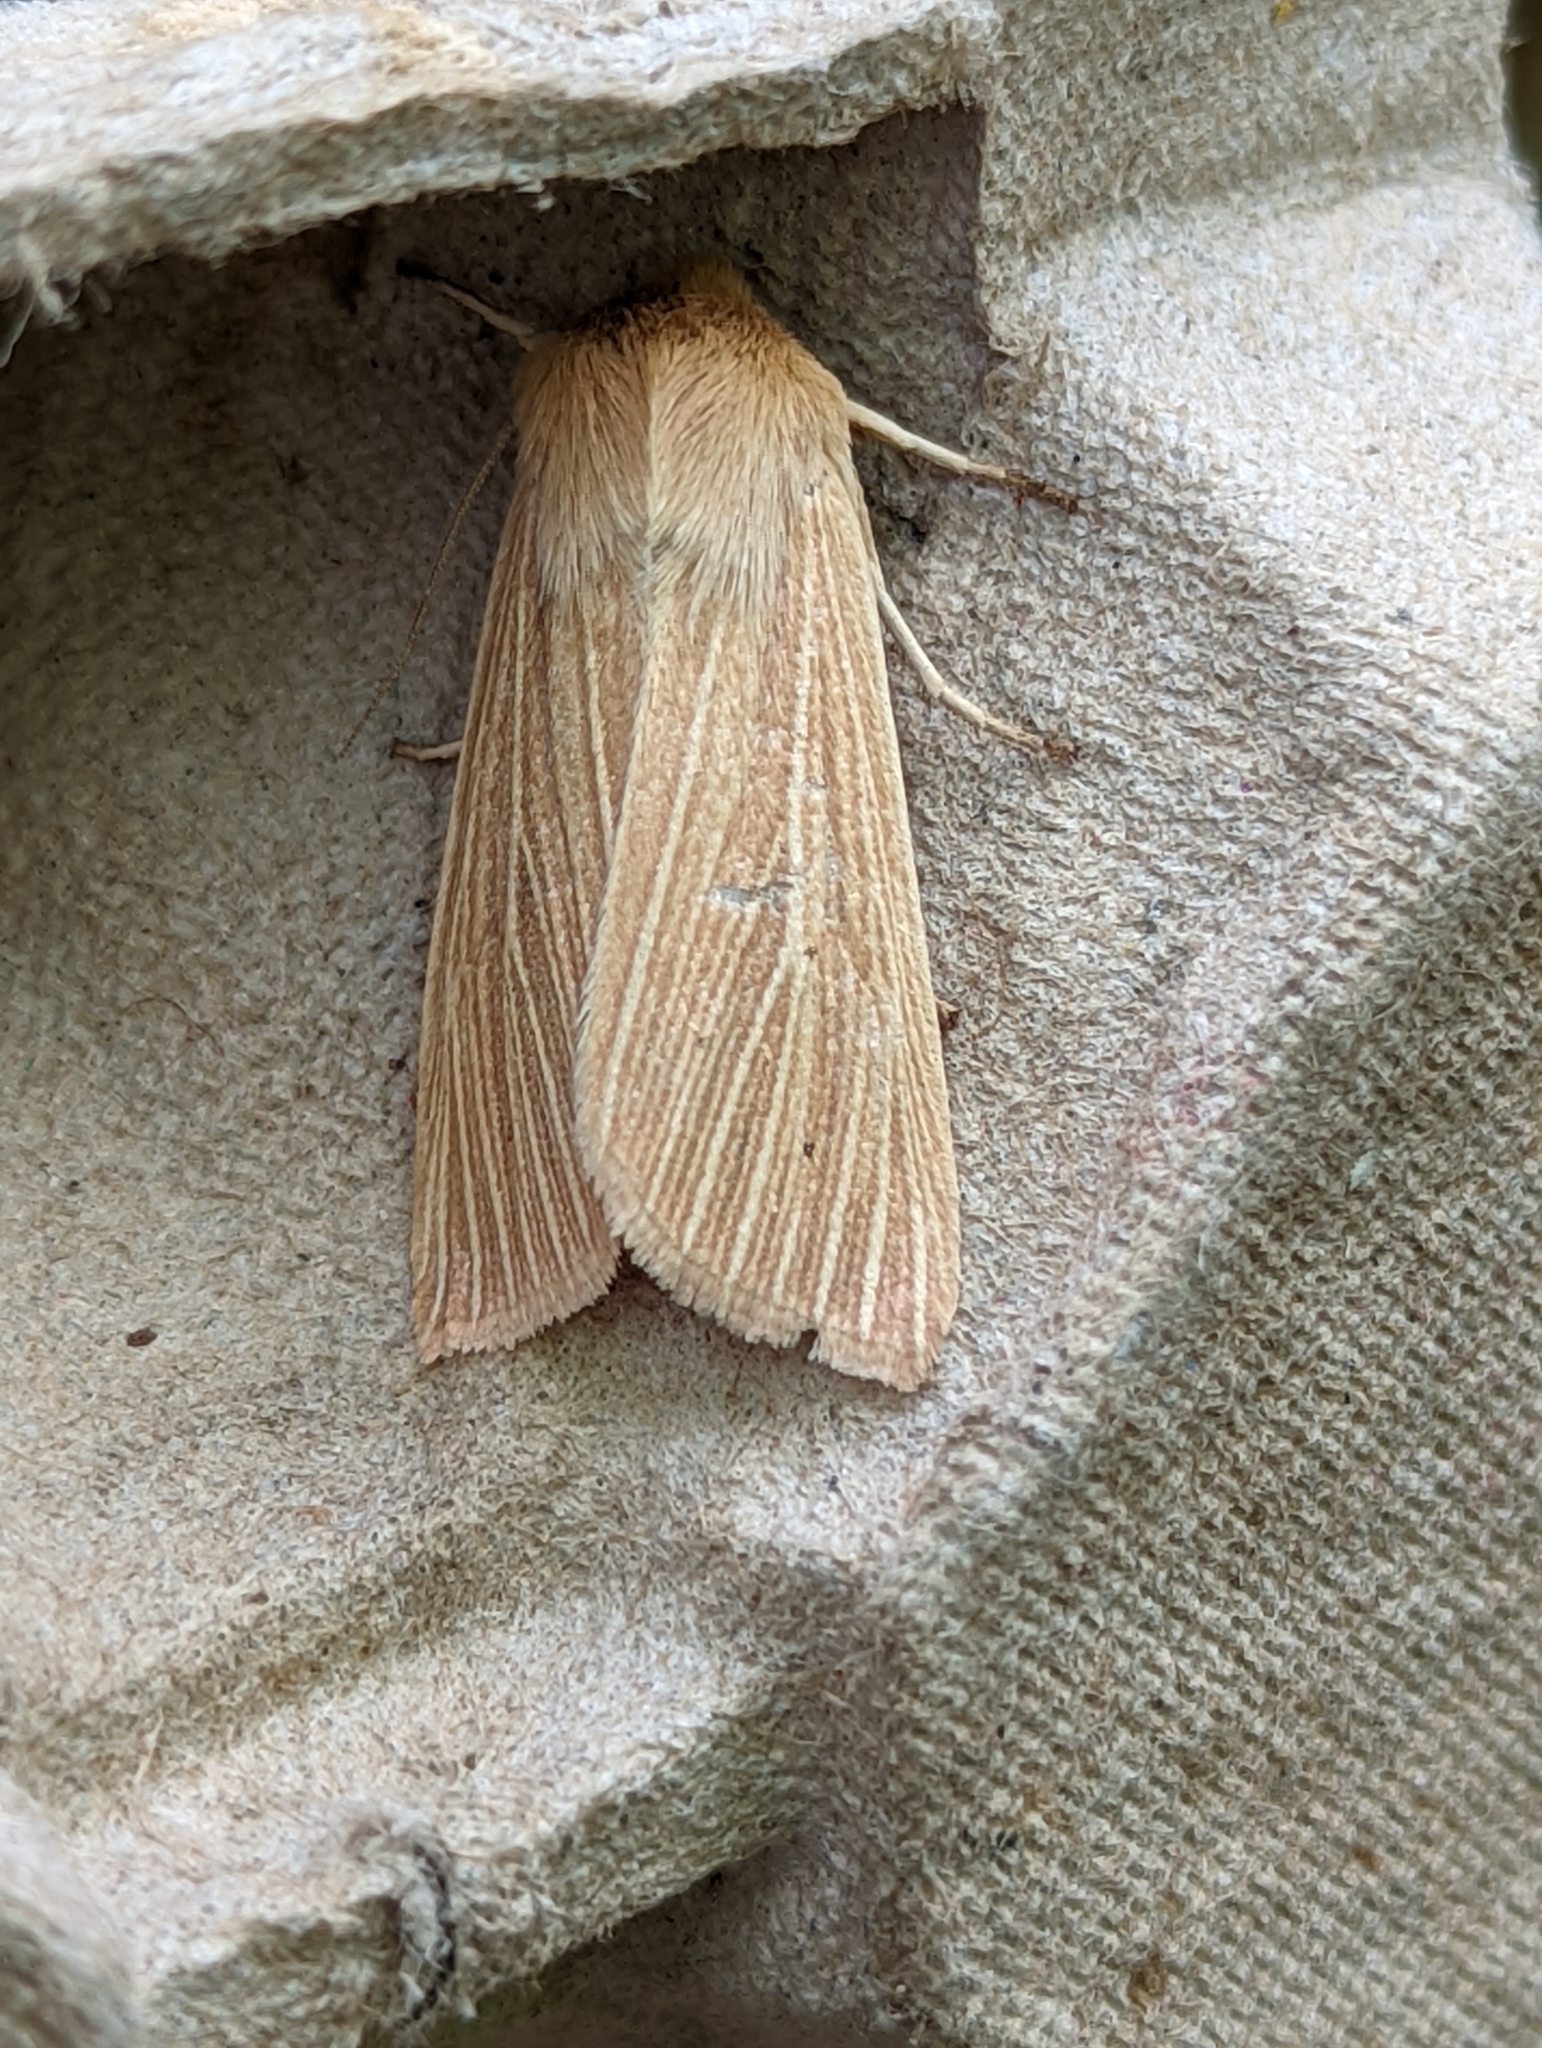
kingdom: Animalia
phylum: Arthropoda
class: Insecta
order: Lepidoptera
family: Noctuidae
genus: Mythimna
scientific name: Mythimna pallens
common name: Common wainscot
